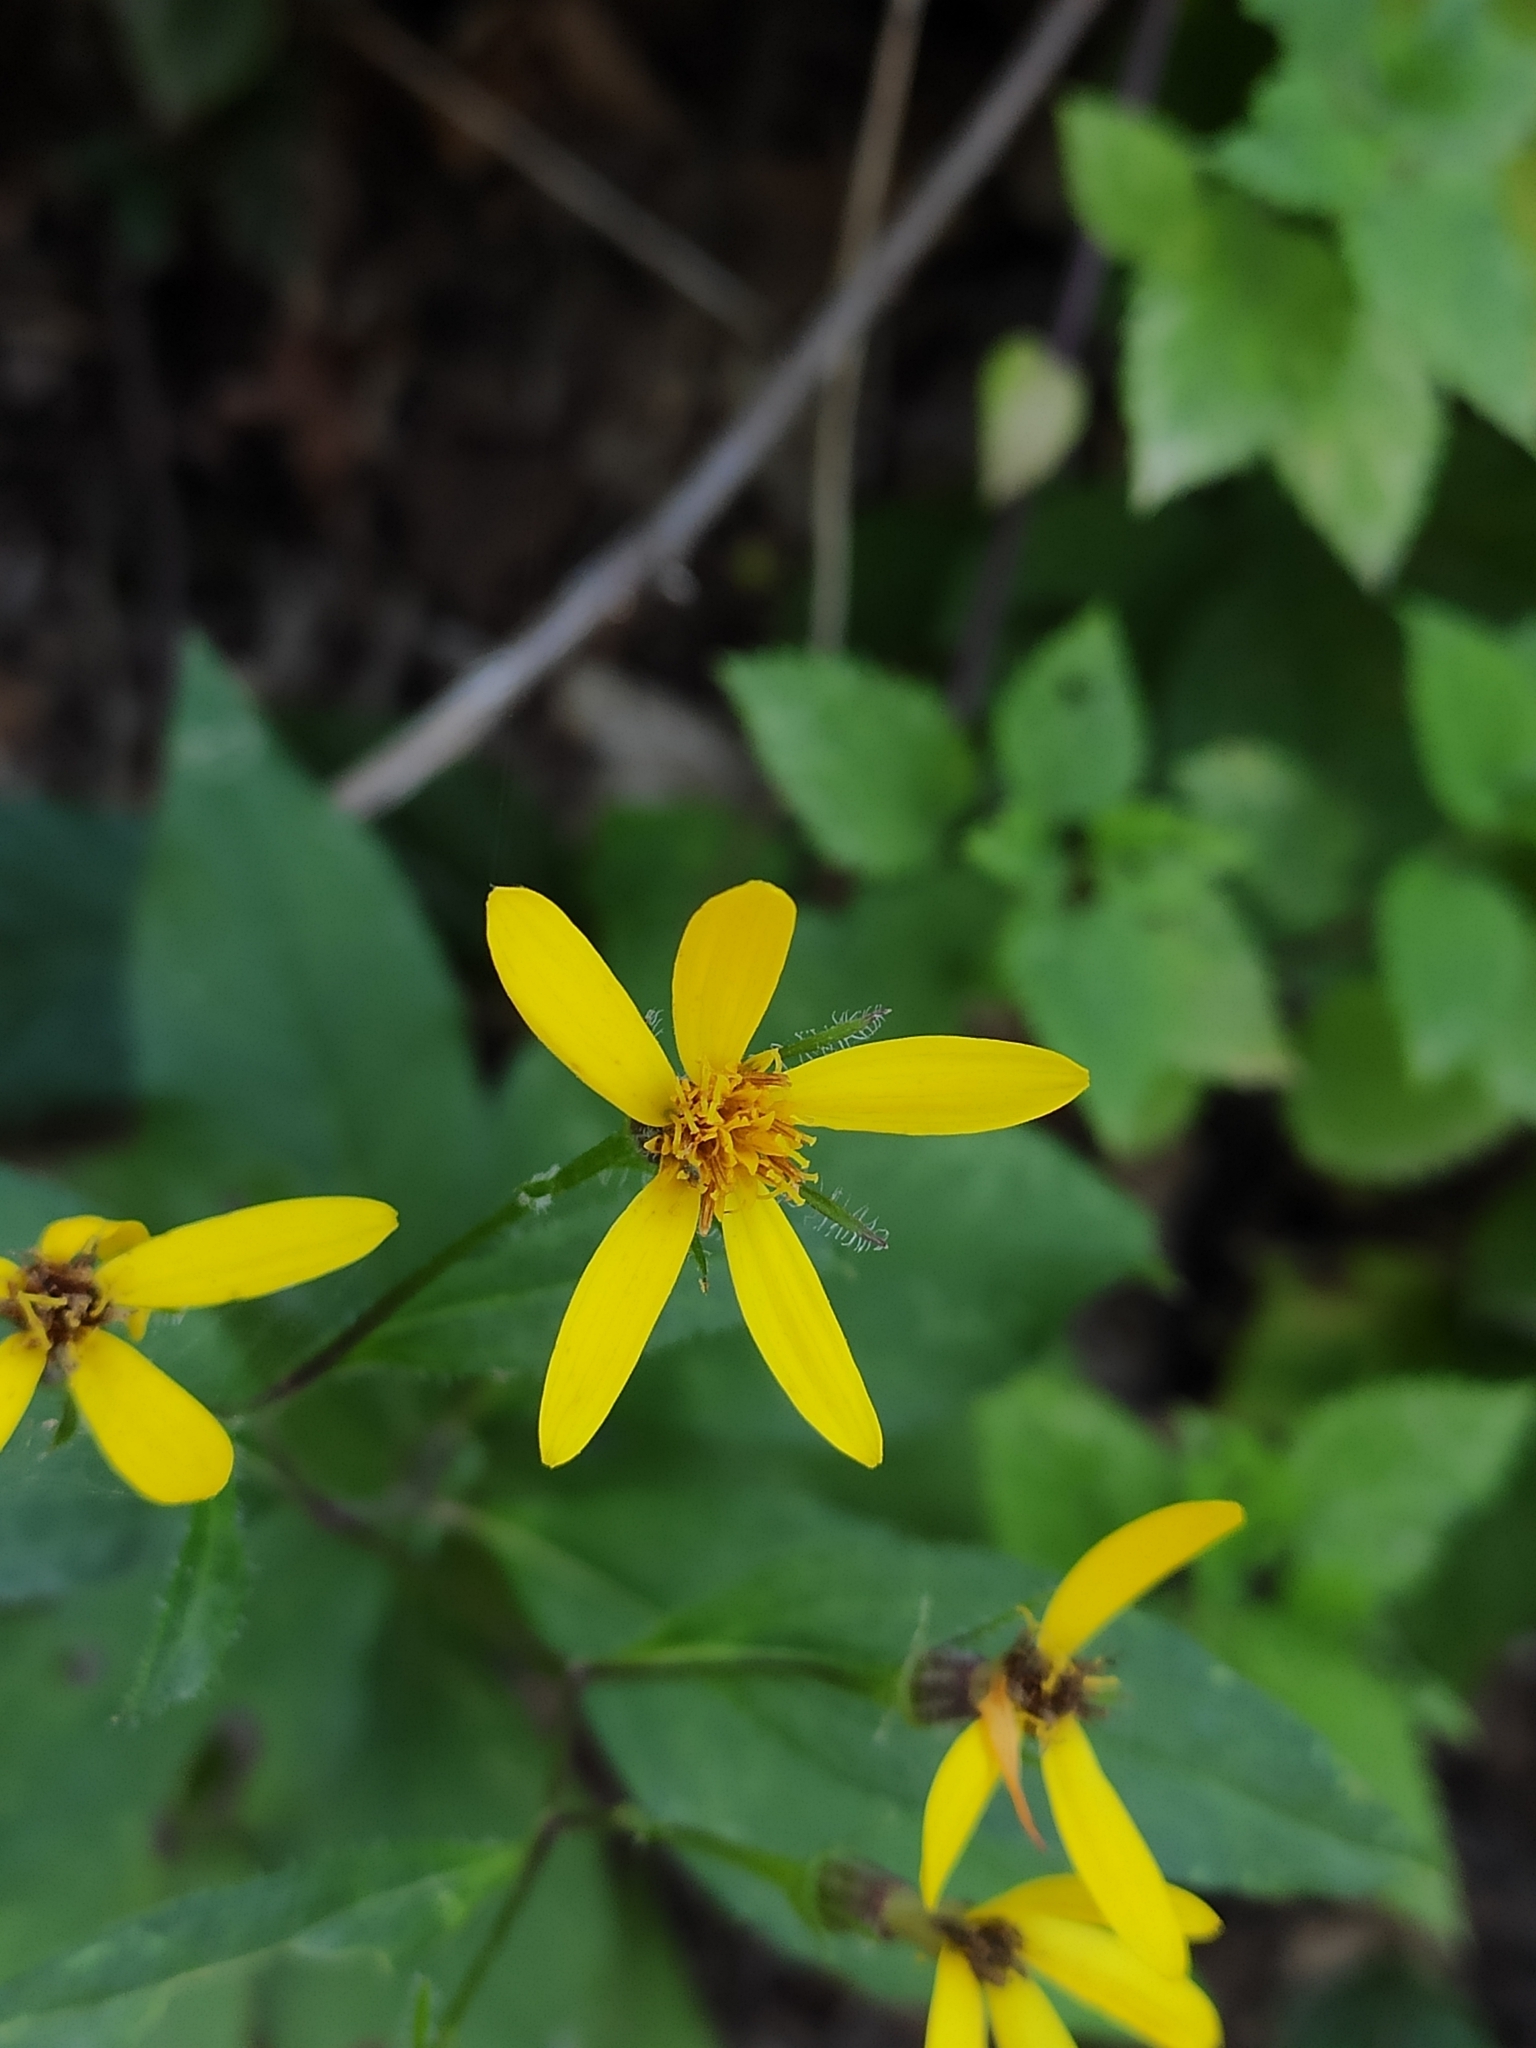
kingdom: Plantae
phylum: Tracheophyta
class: Magnoliopsida
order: Asterales
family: Asteraceae
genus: Senecio
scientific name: Senecio propinquus
